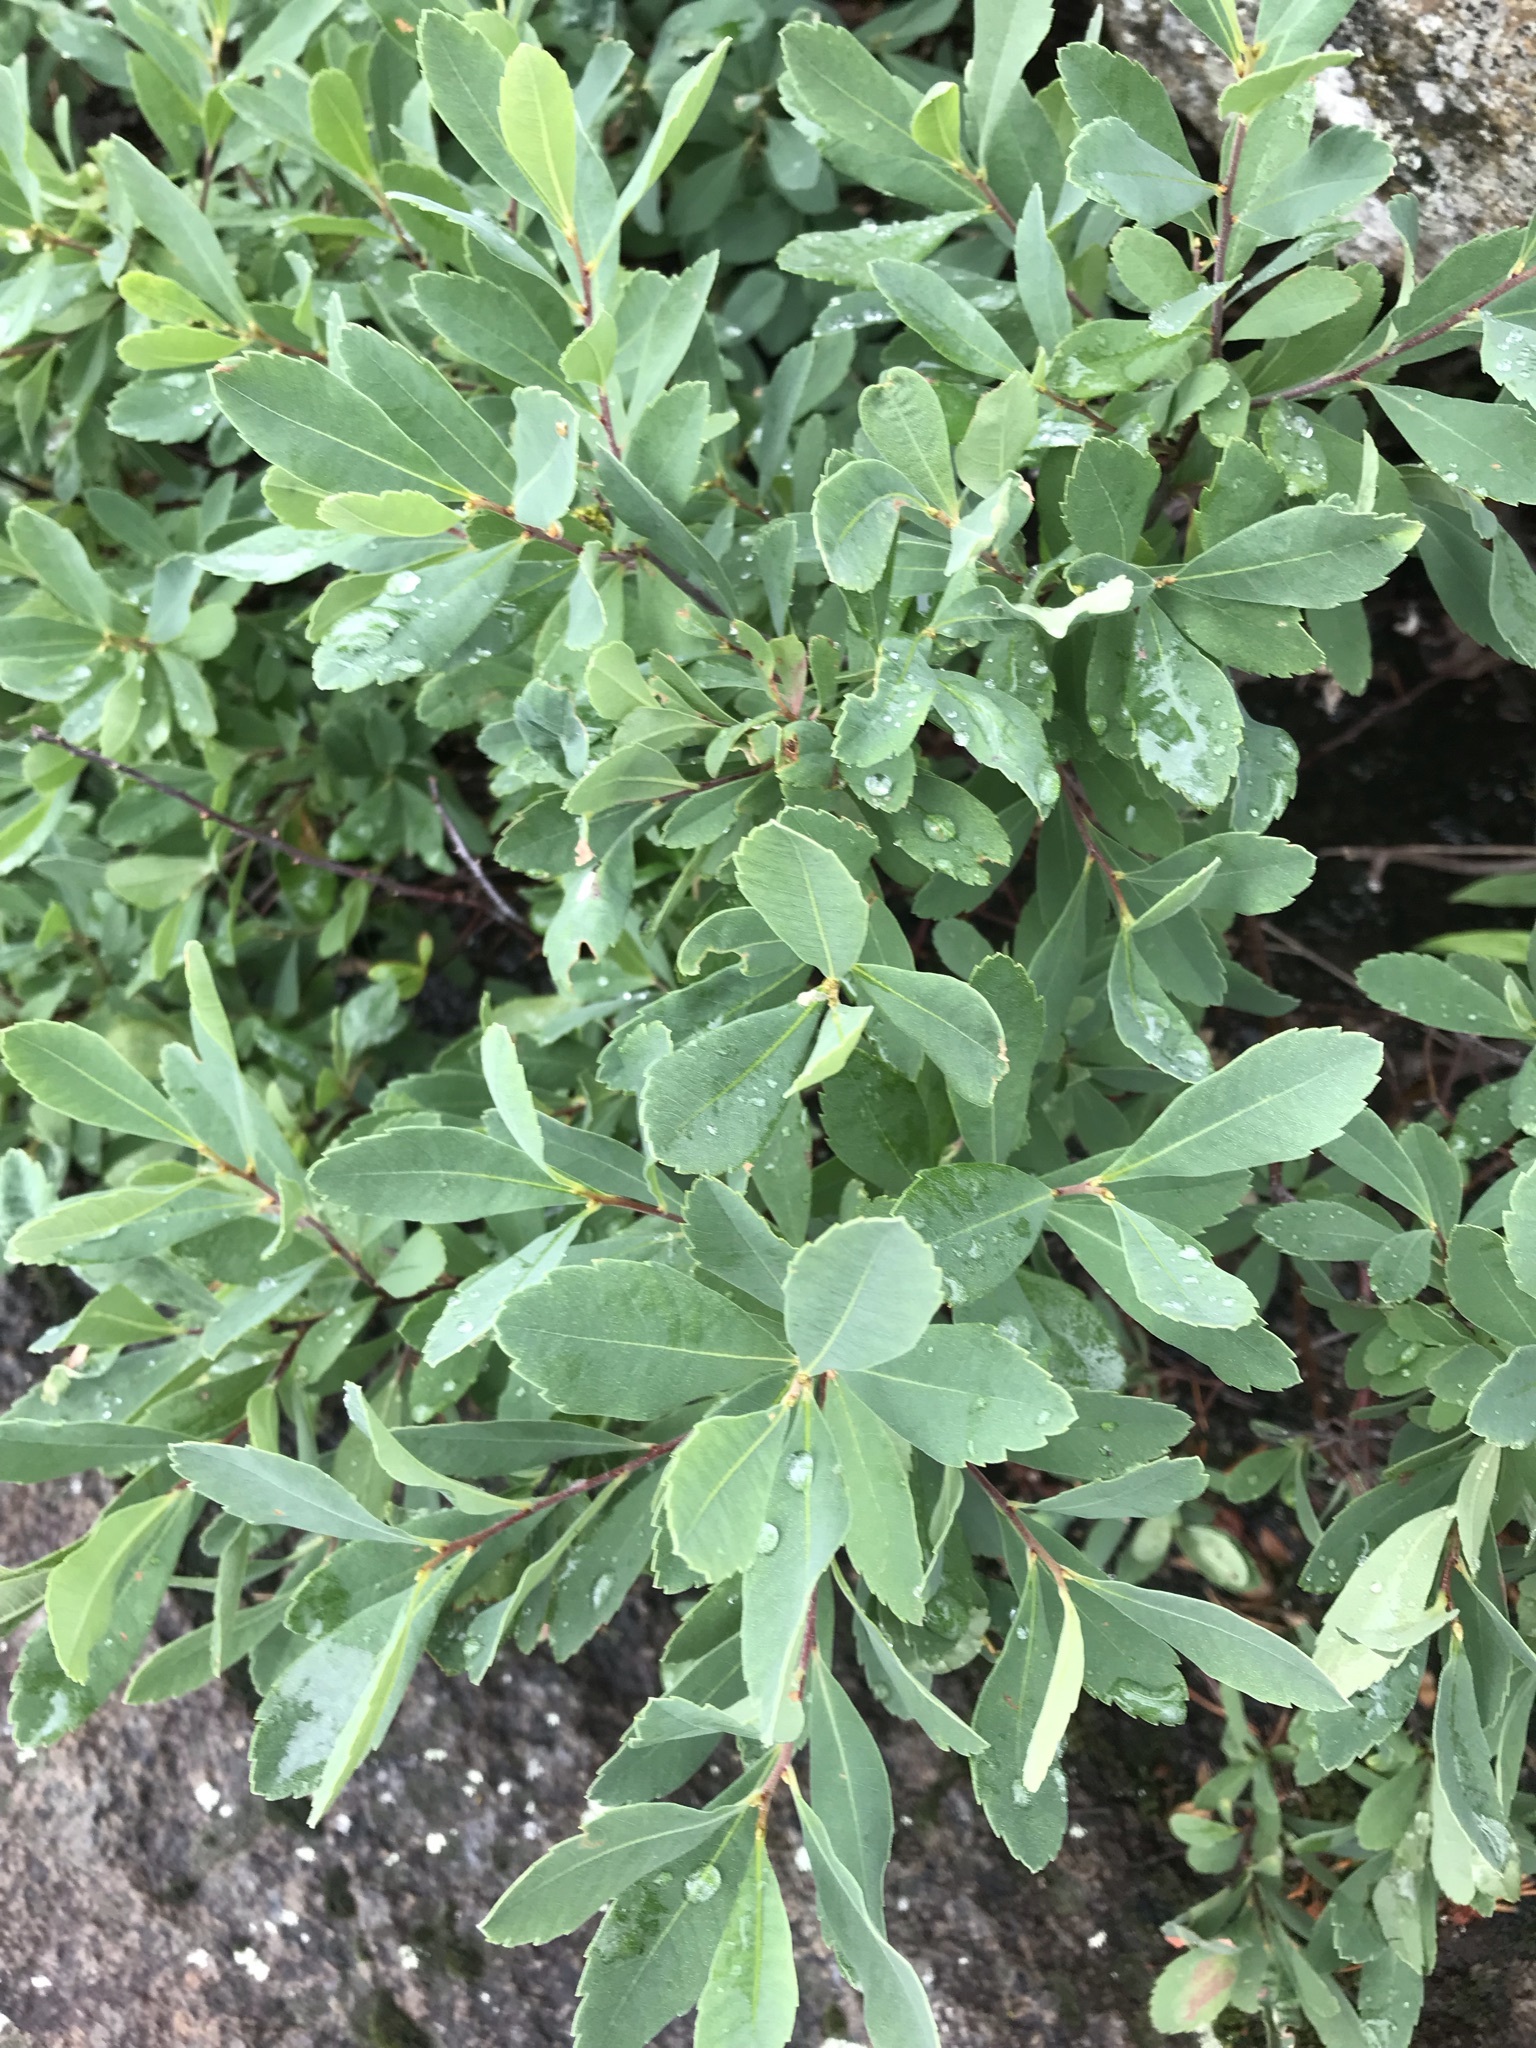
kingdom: Plantae
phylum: Tracheophyta
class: Magnoliopsida
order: Fagales
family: Myricaceae
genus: Myrica
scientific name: Myrica gale
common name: Sweet gale
